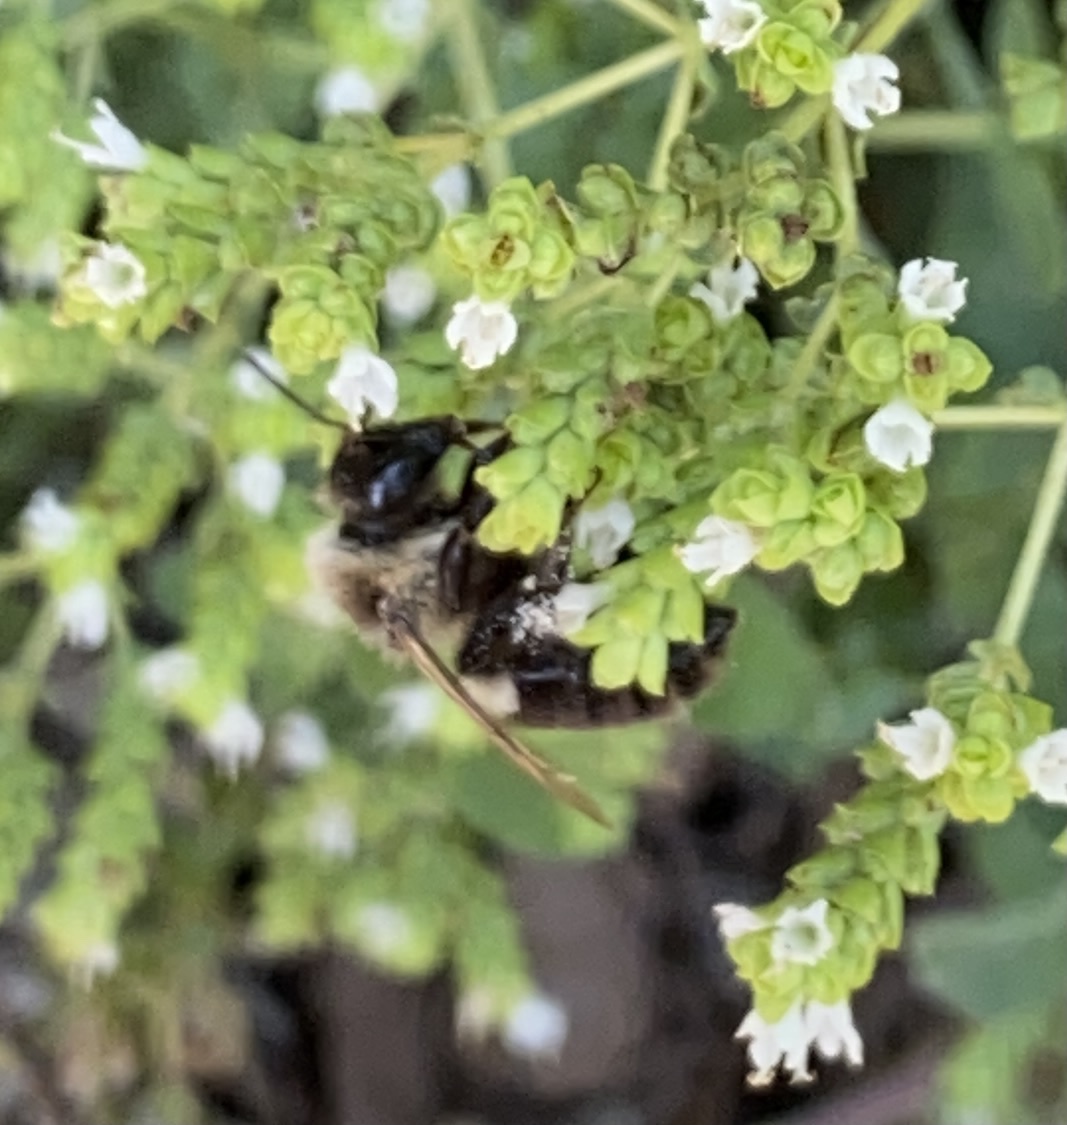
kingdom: Animalia
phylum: Arthropoda
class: Insecta
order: Hymenoptera
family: Apidae
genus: Bombus
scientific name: Bombus impatiens
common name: Common eastern bumble bee
